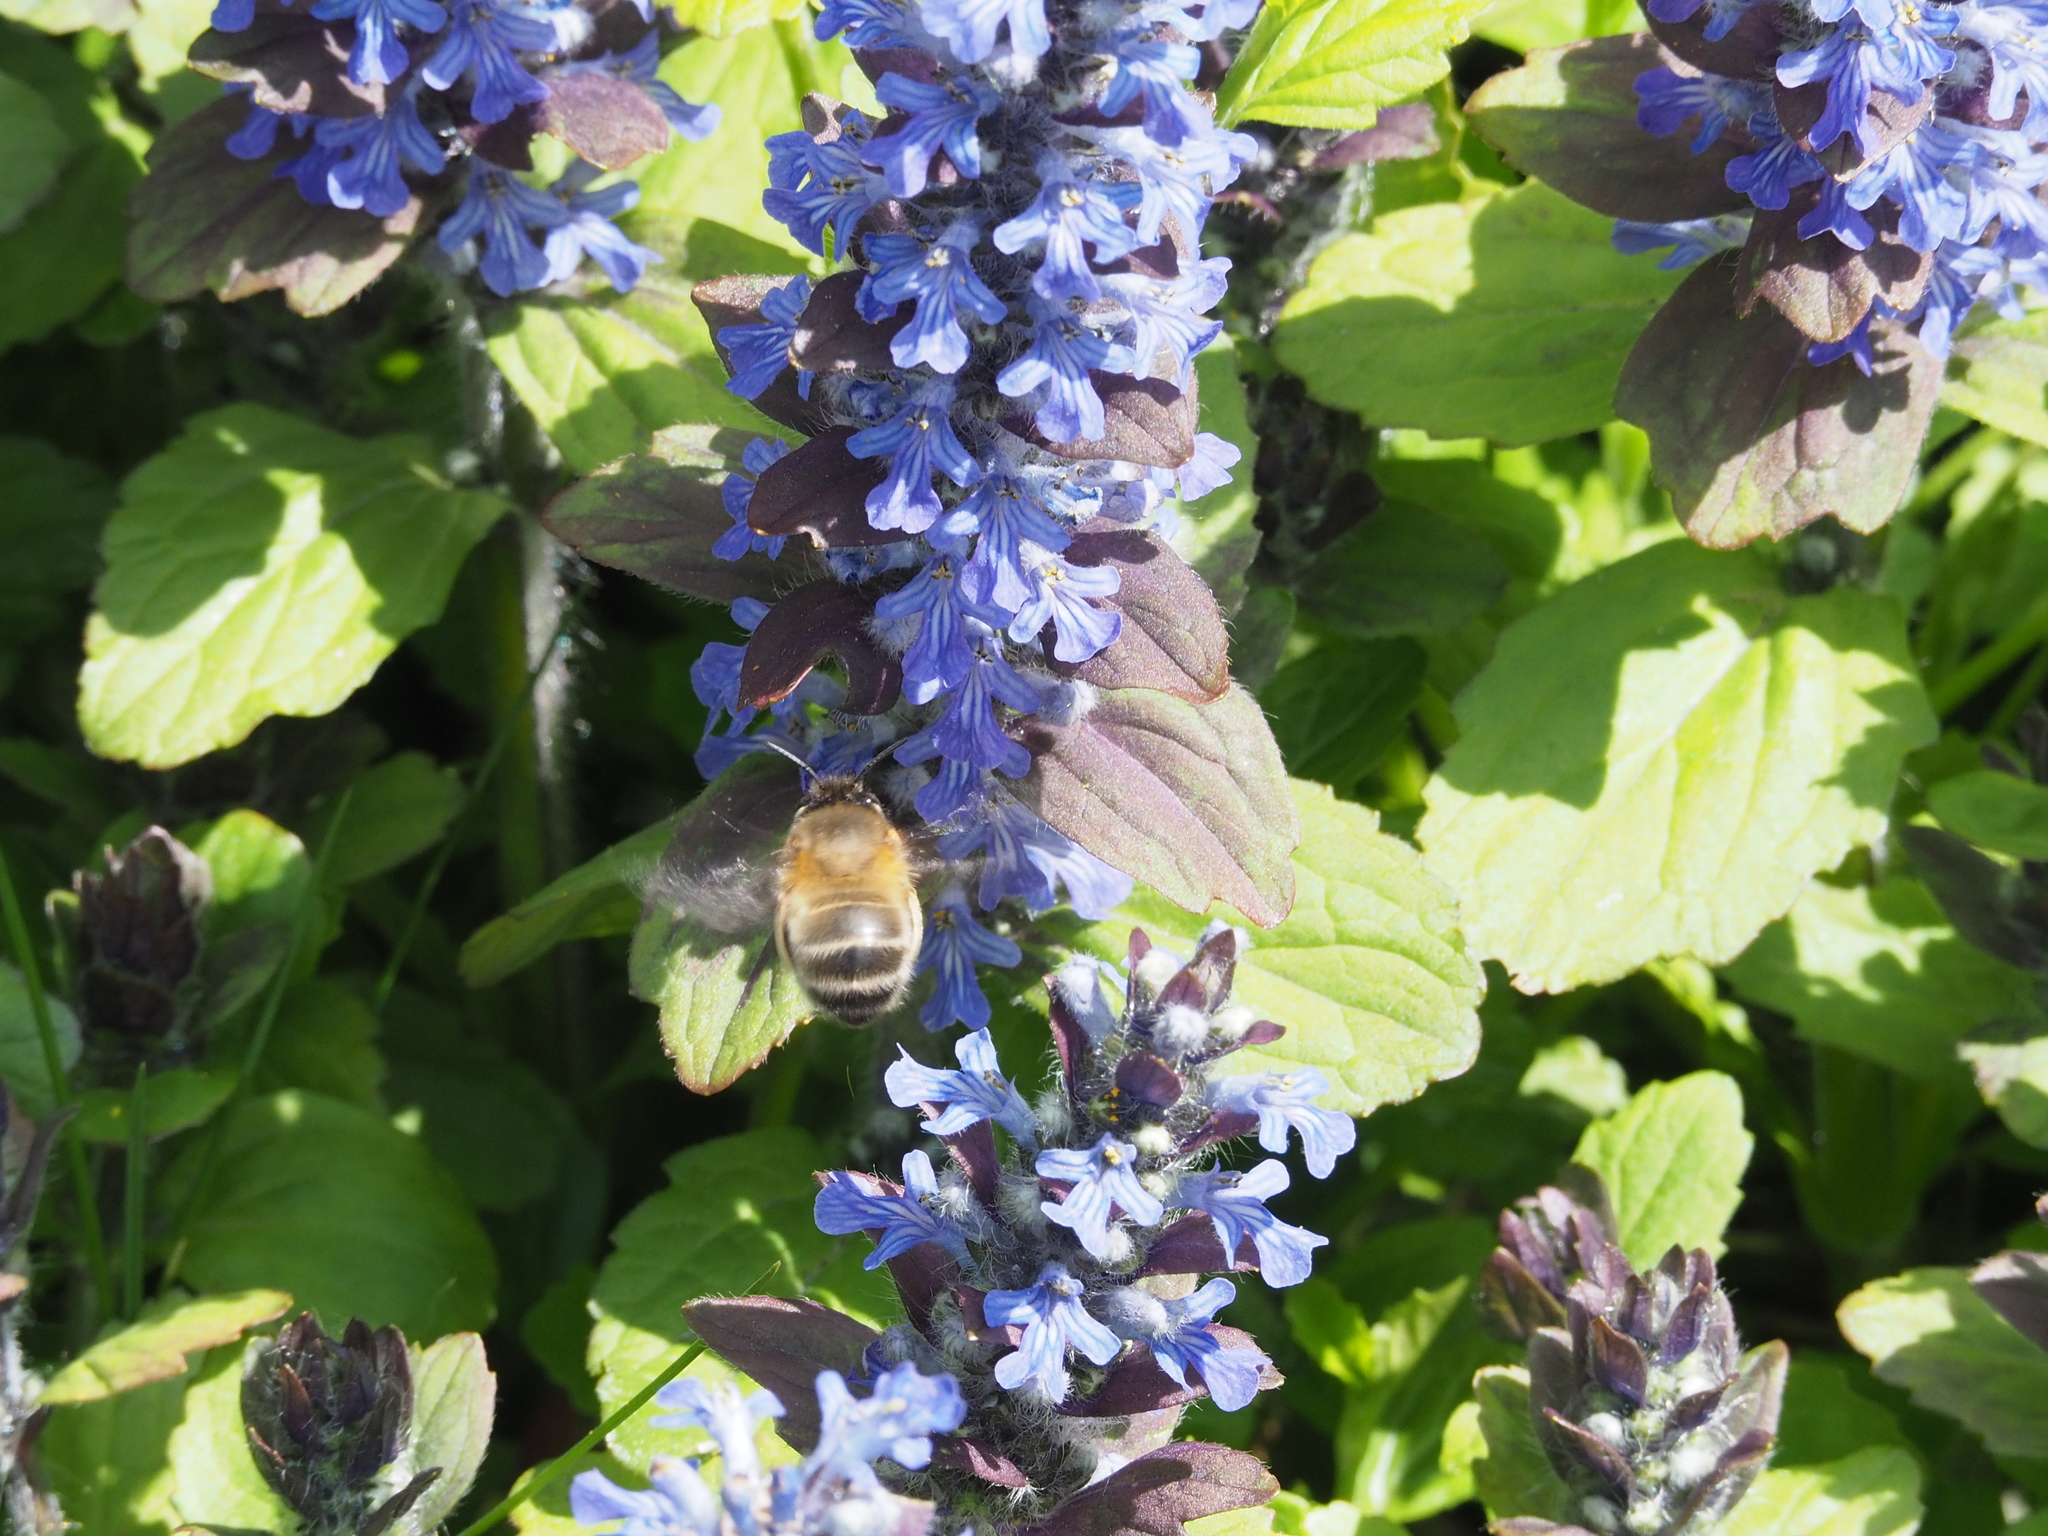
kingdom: Animalia
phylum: Arthropoda
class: Insecta
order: Hymenoptera
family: Apidae
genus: Anthophora
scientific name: Anthophora plumipes
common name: Hairy-footed flower bee
